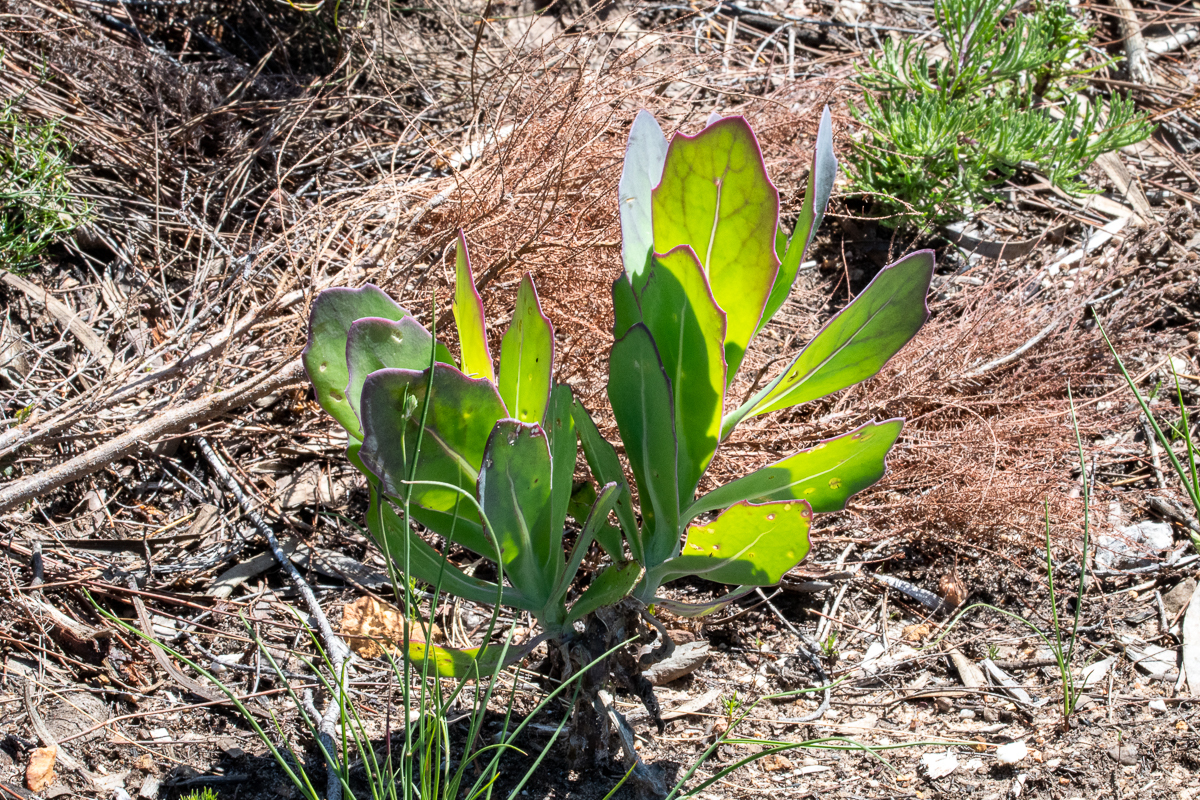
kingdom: Plantae
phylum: Tracheophyta
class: Magnoliopsida
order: Asterales
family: Asteraceae
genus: Othonna
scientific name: Othonna quinquedentata
